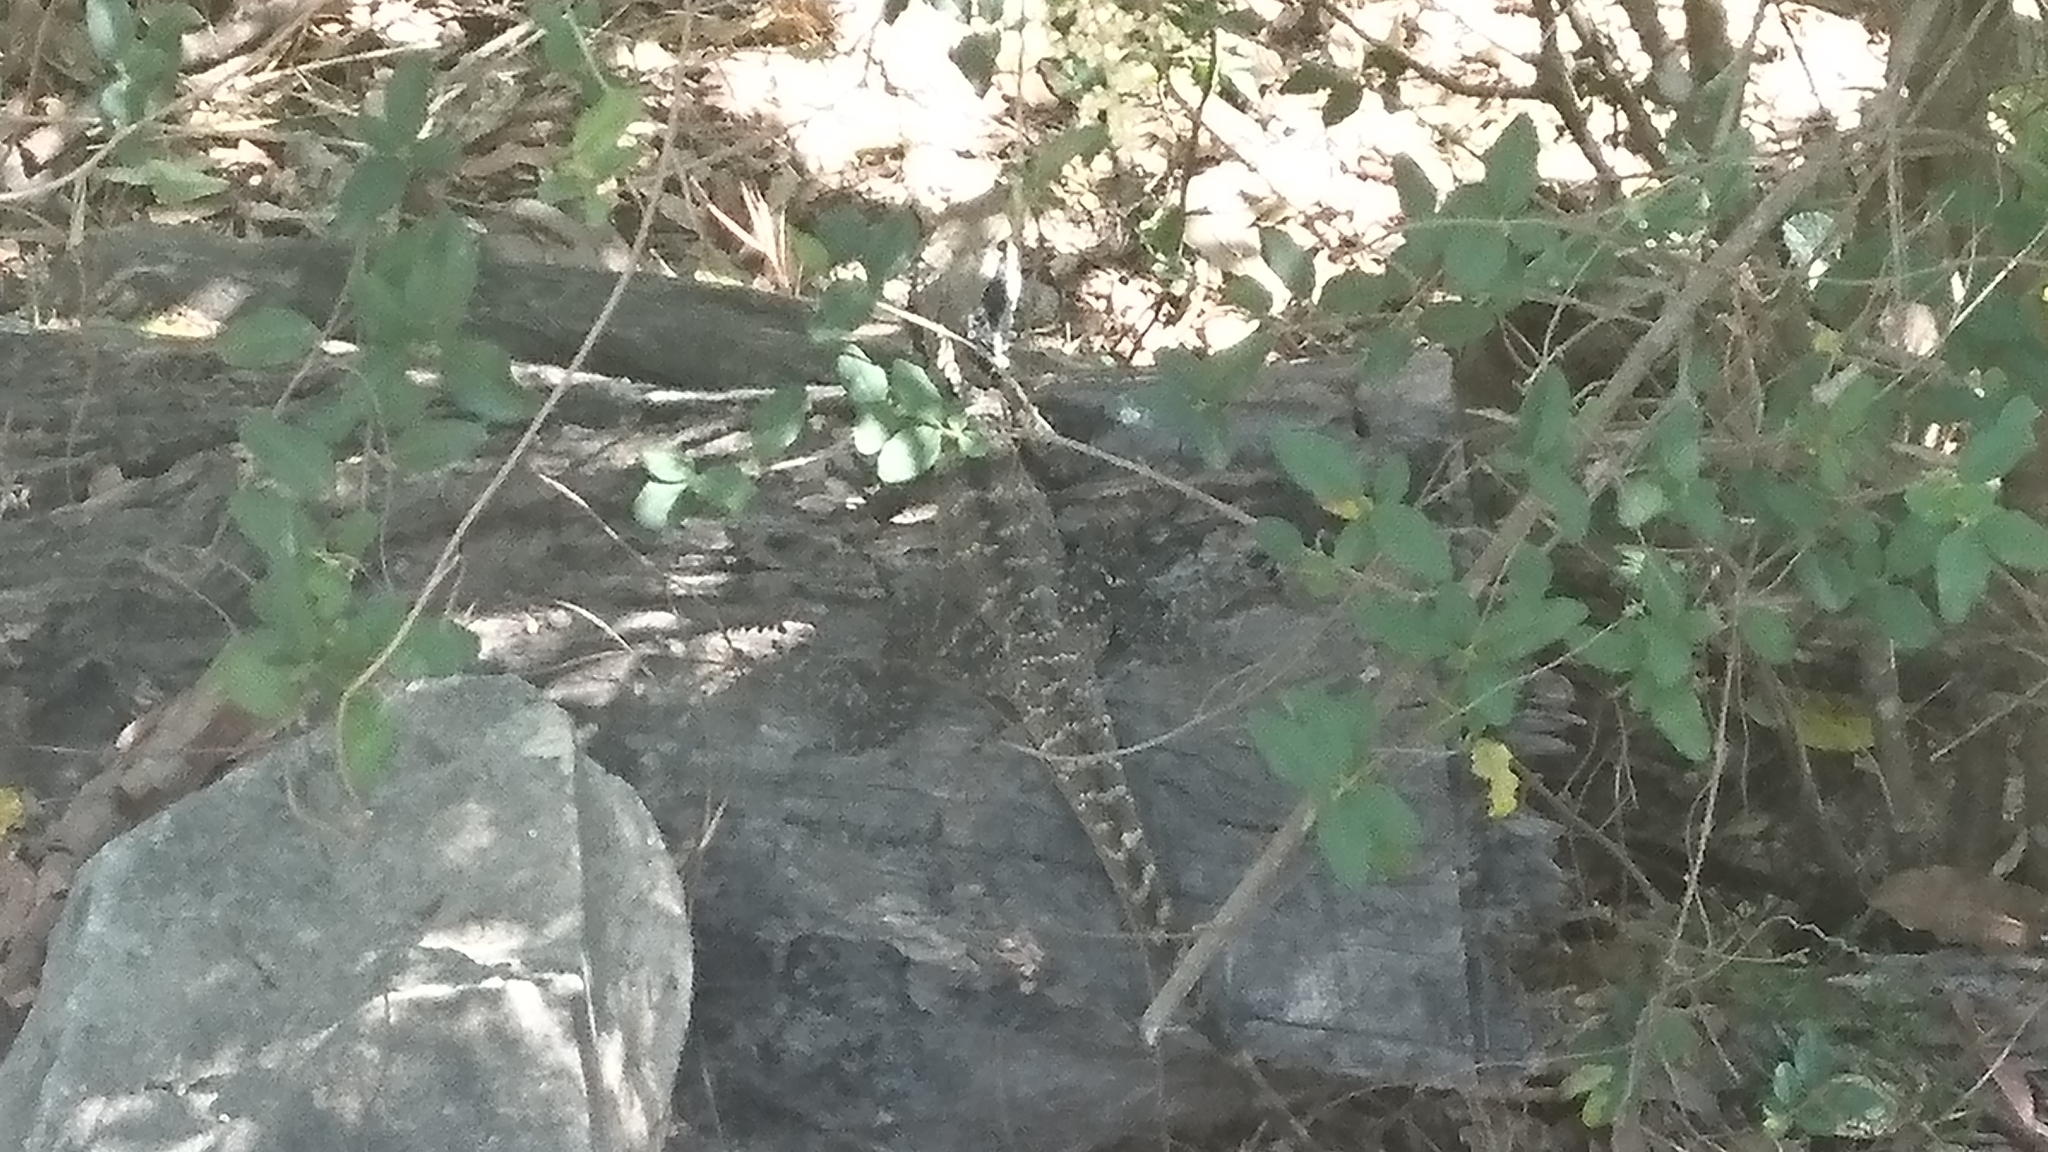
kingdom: Animalia
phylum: Chordata
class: Squamata
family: Agamidae
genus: Intellagama
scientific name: Intellagama lesueurii
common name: Eastern water dragon
